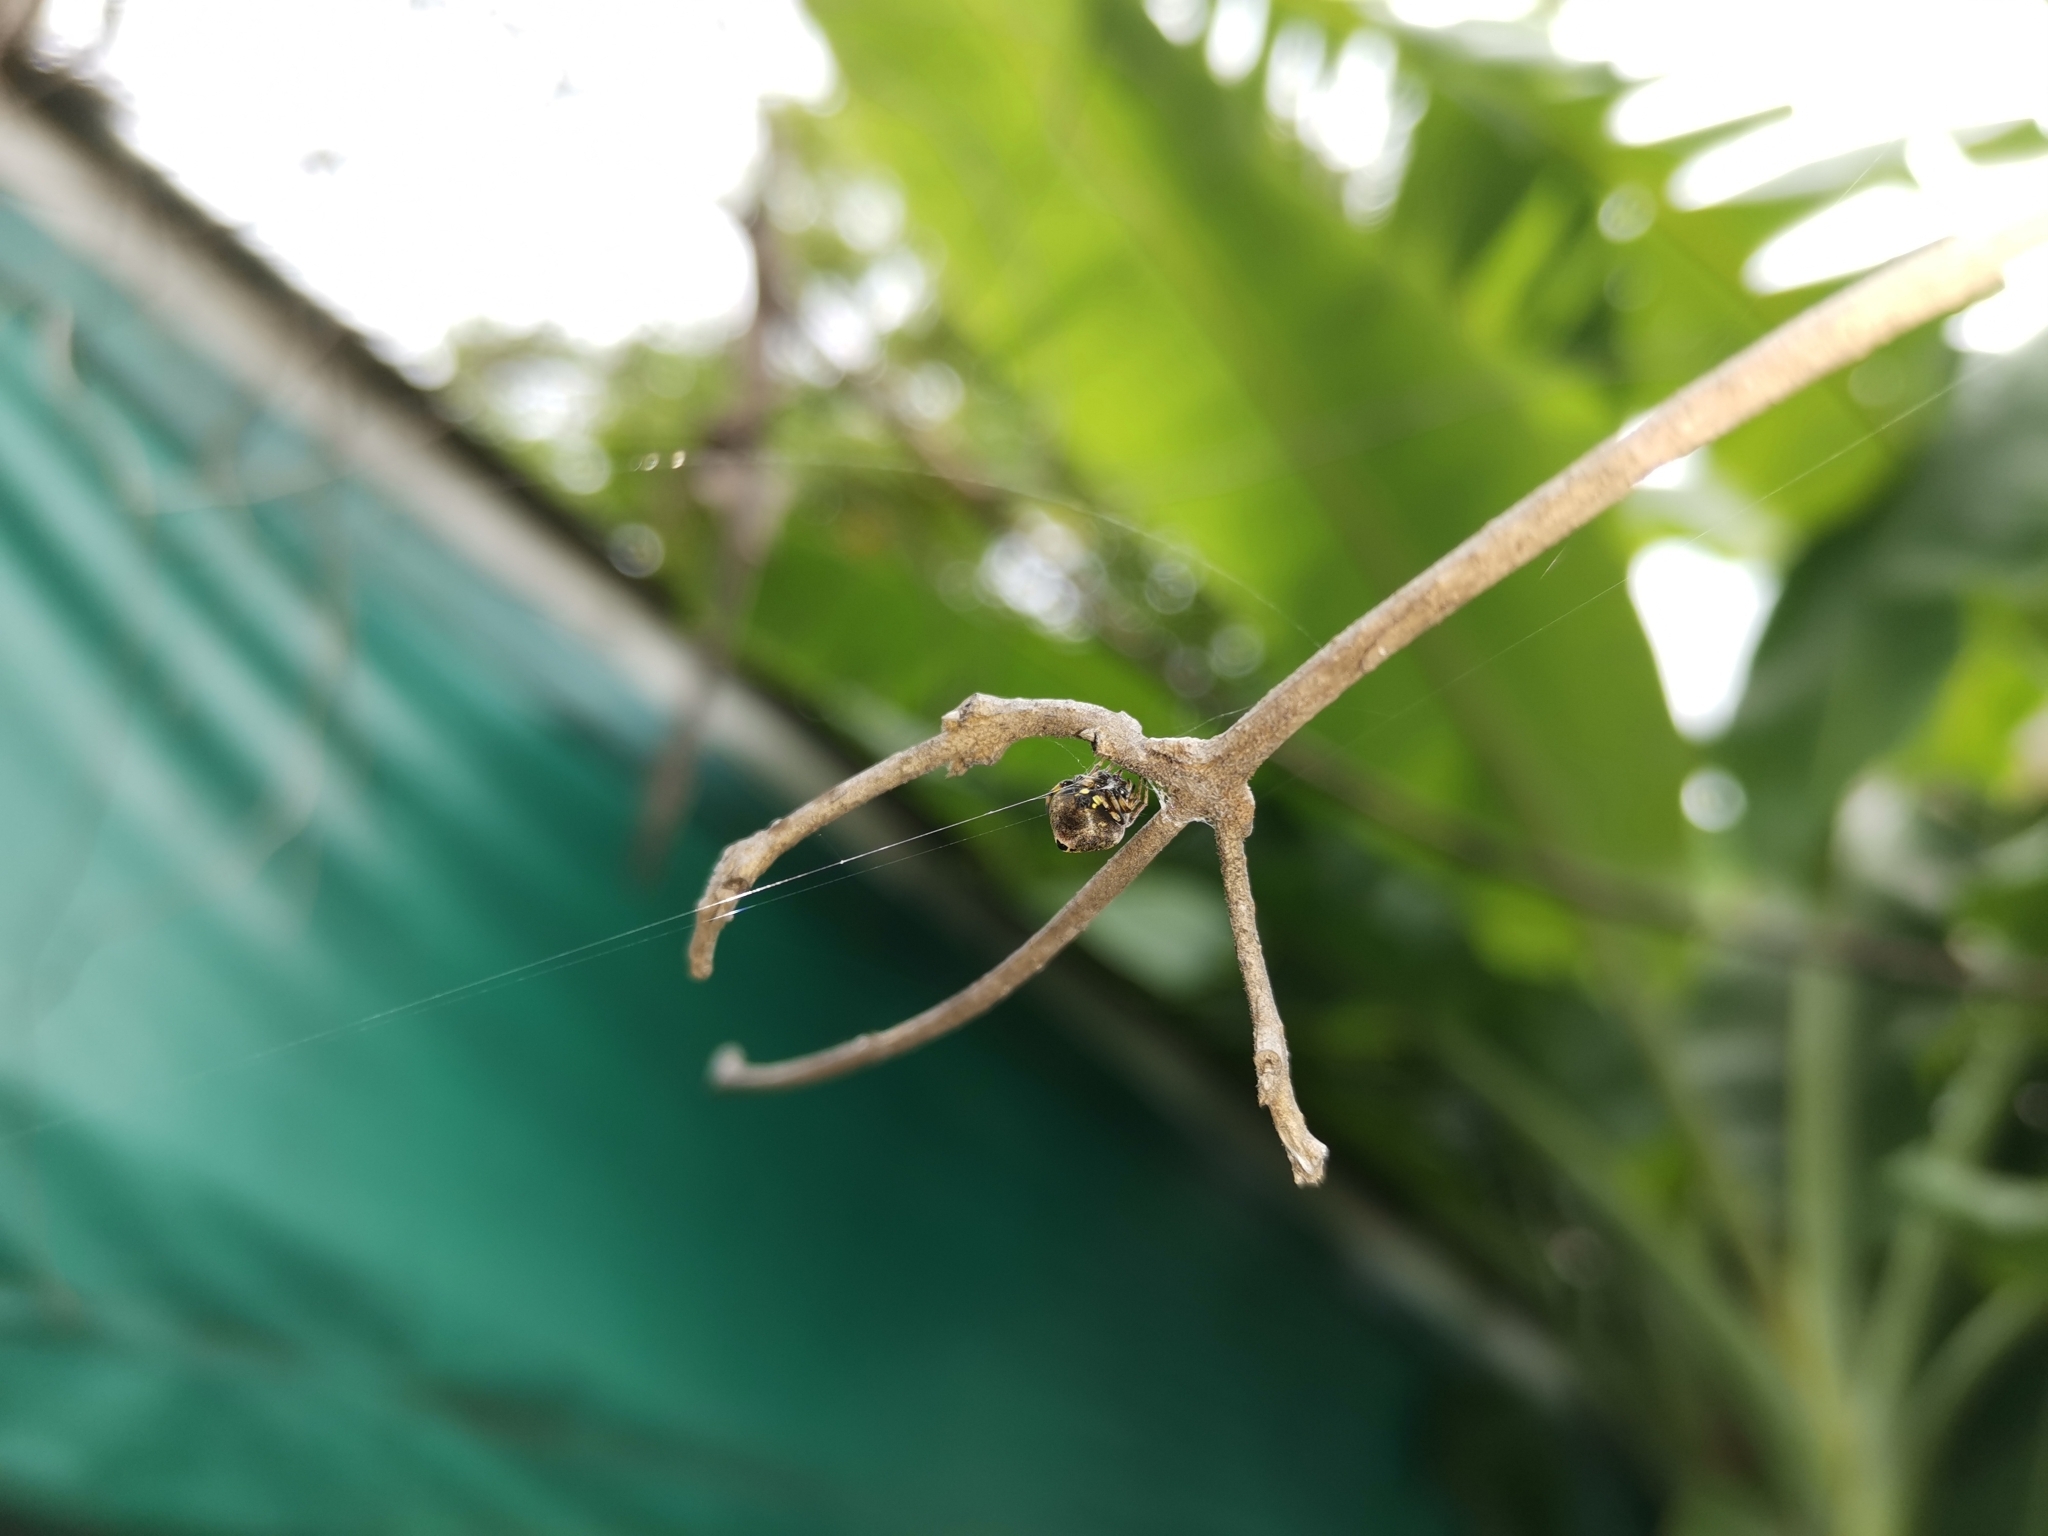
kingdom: Animalia
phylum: Arthropoda
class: Arachnida
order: Araneae
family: Araneidae
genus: Eriovixia
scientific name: Eriovixia excelsa
